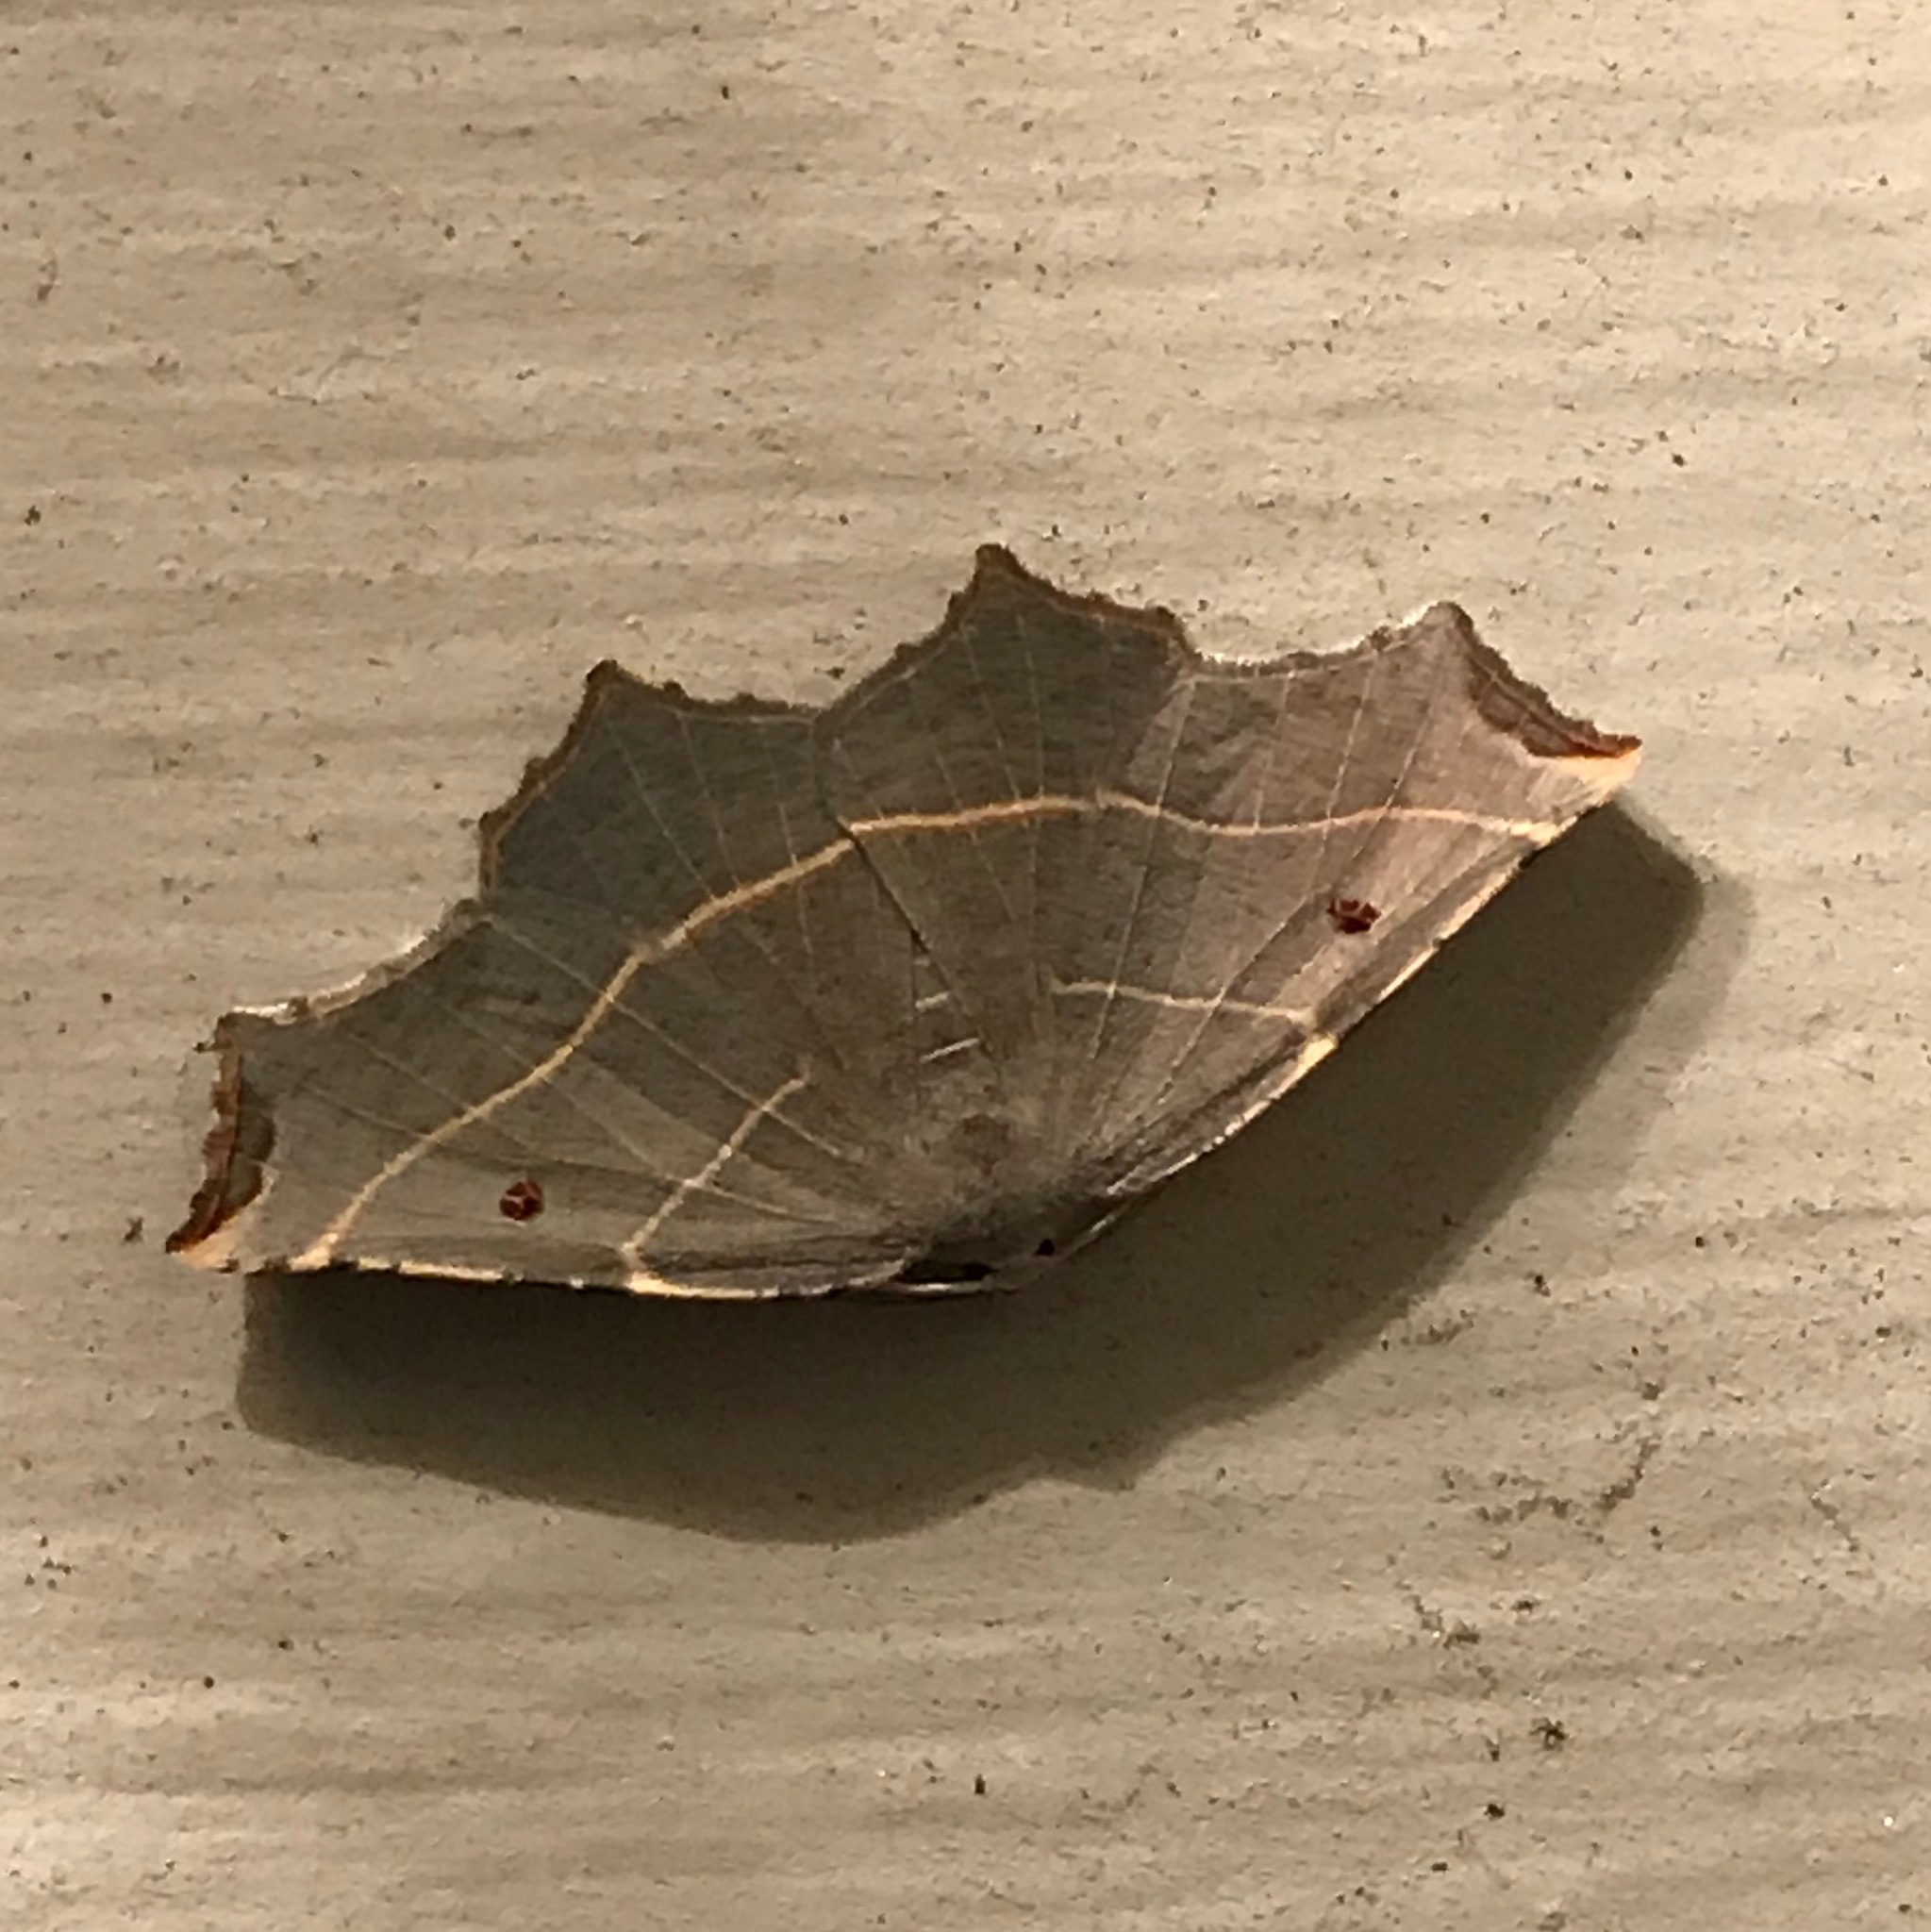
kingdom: Animalia
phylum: Arthropoda
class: Insecta
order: Lepidoptera
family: Geometridae
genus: Metanema
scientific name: Metanema inatomaria
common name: Pale metanema
